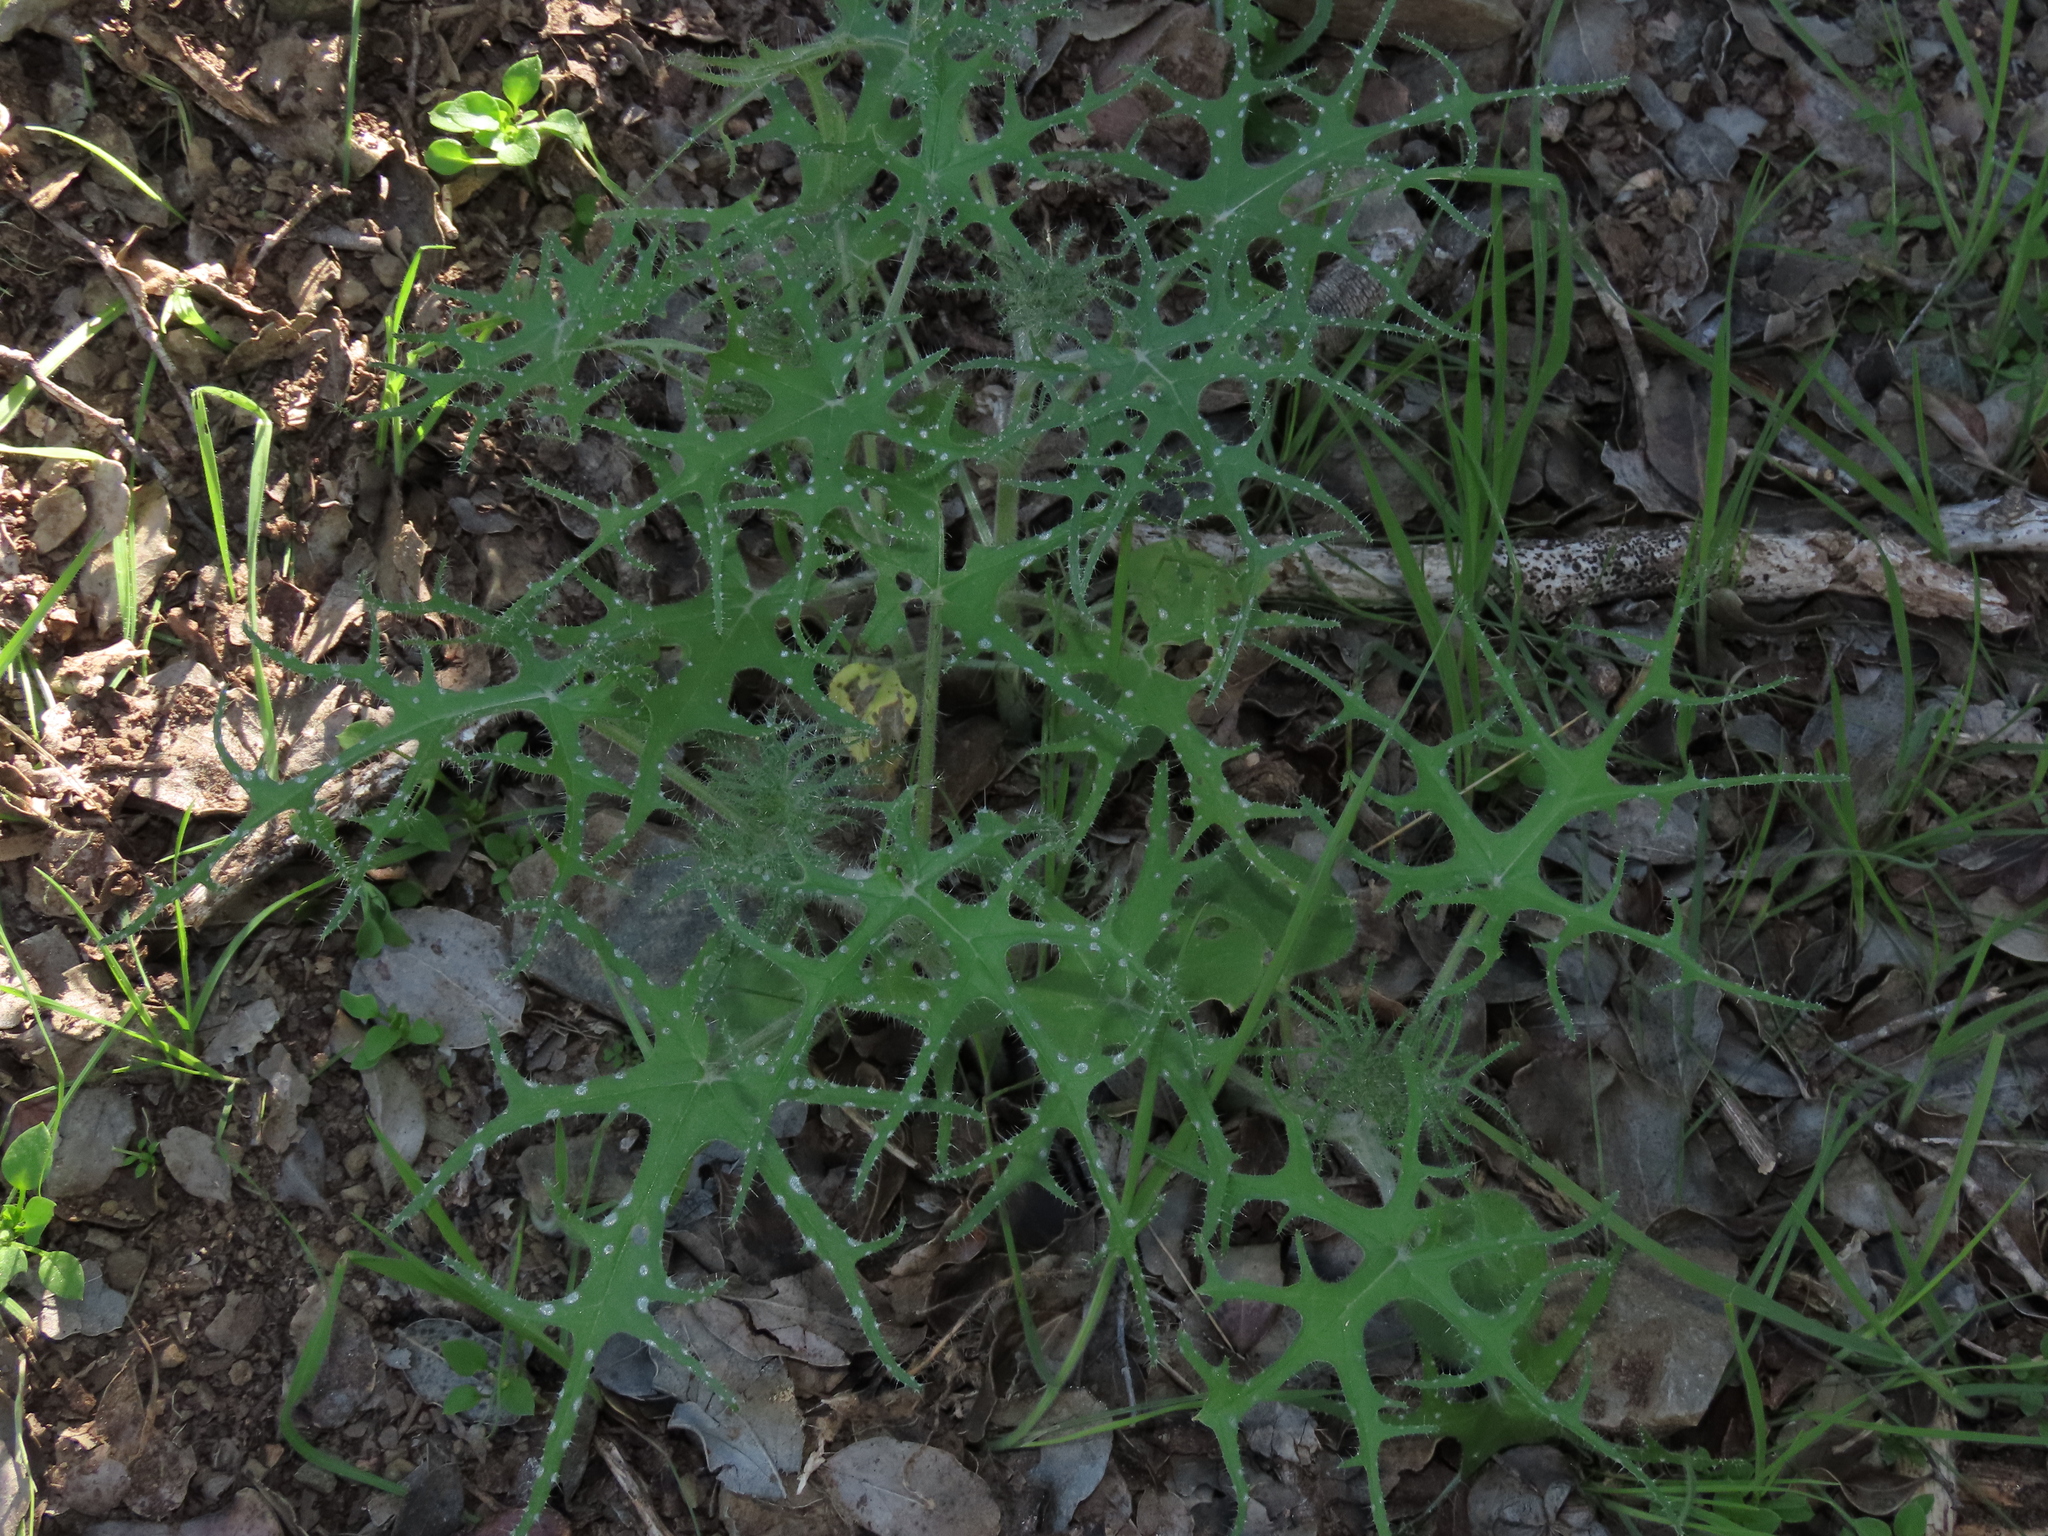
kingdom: Plantae
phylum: Tracheophyta
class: Magnoliopsida
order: Cornales
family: Loasaceae
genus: Loasa
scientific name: Loasa multifida
